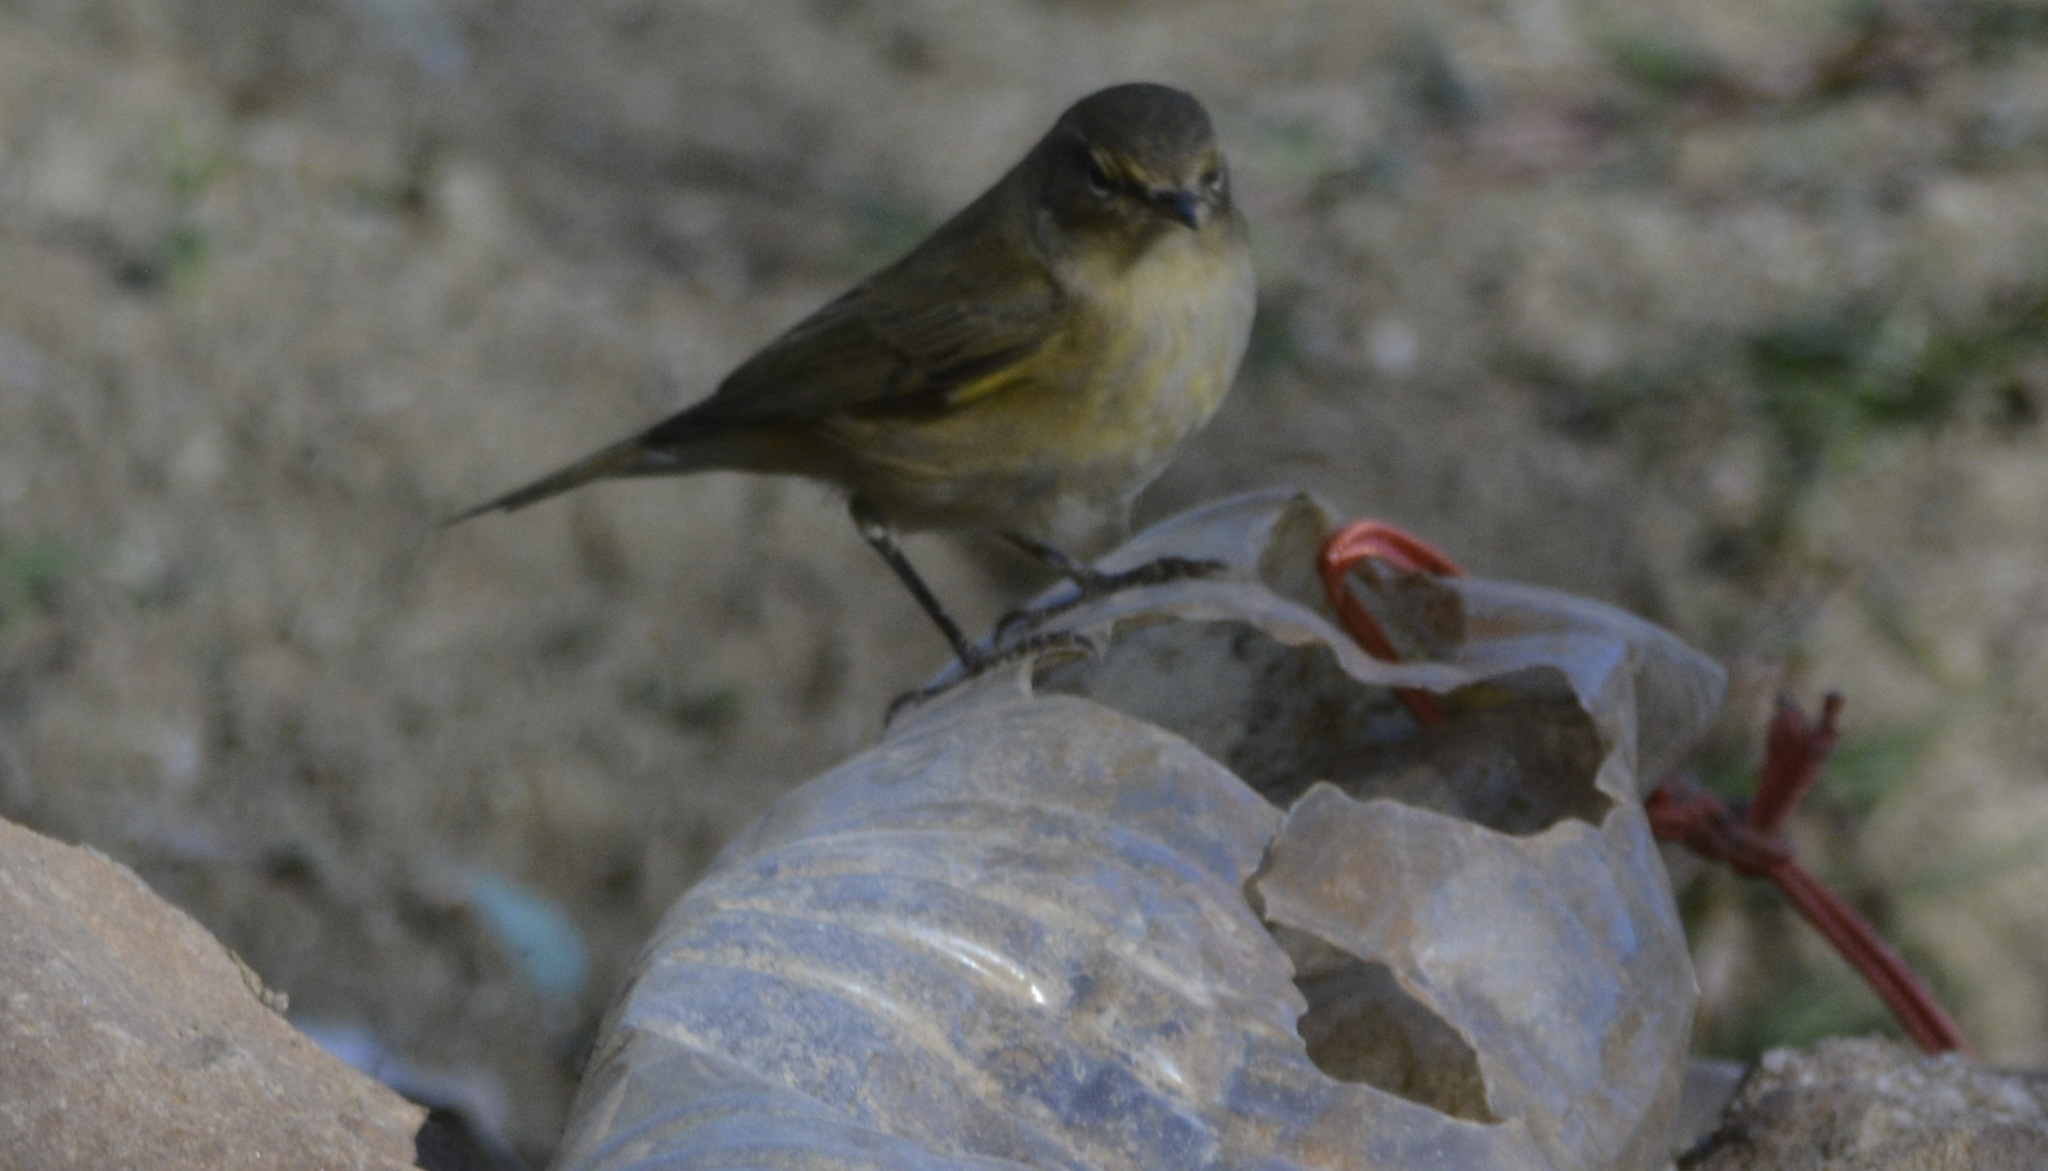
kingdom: Animalia
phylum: Chordata
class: Aves
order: Passeriformes
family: Phylloscopidae
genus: Phylloscopus
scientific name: Phylloscopus collybita
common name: Common chiffchaff
